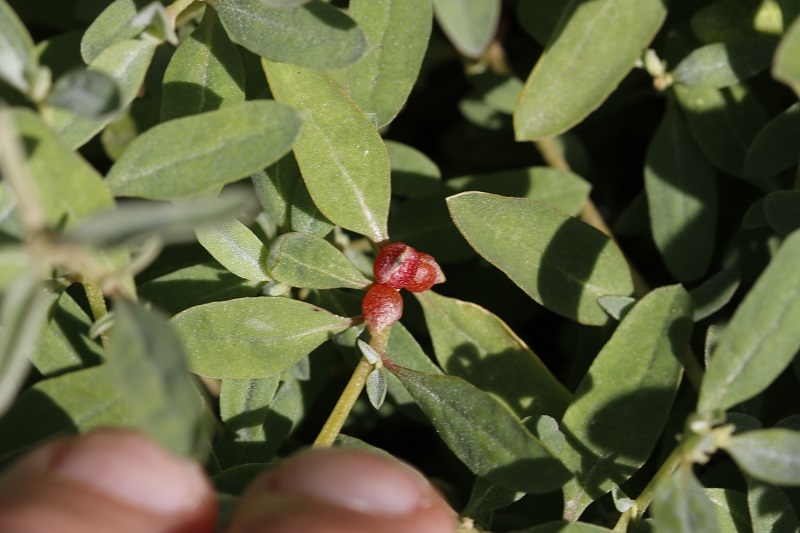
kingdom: Plantae
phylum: Tracheophyta
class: Magnoliopsida
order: Caryophyllales
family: Amaranthaceae
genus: Atriplex
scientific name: Atriplex semibaccata
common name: Australian saltbush
